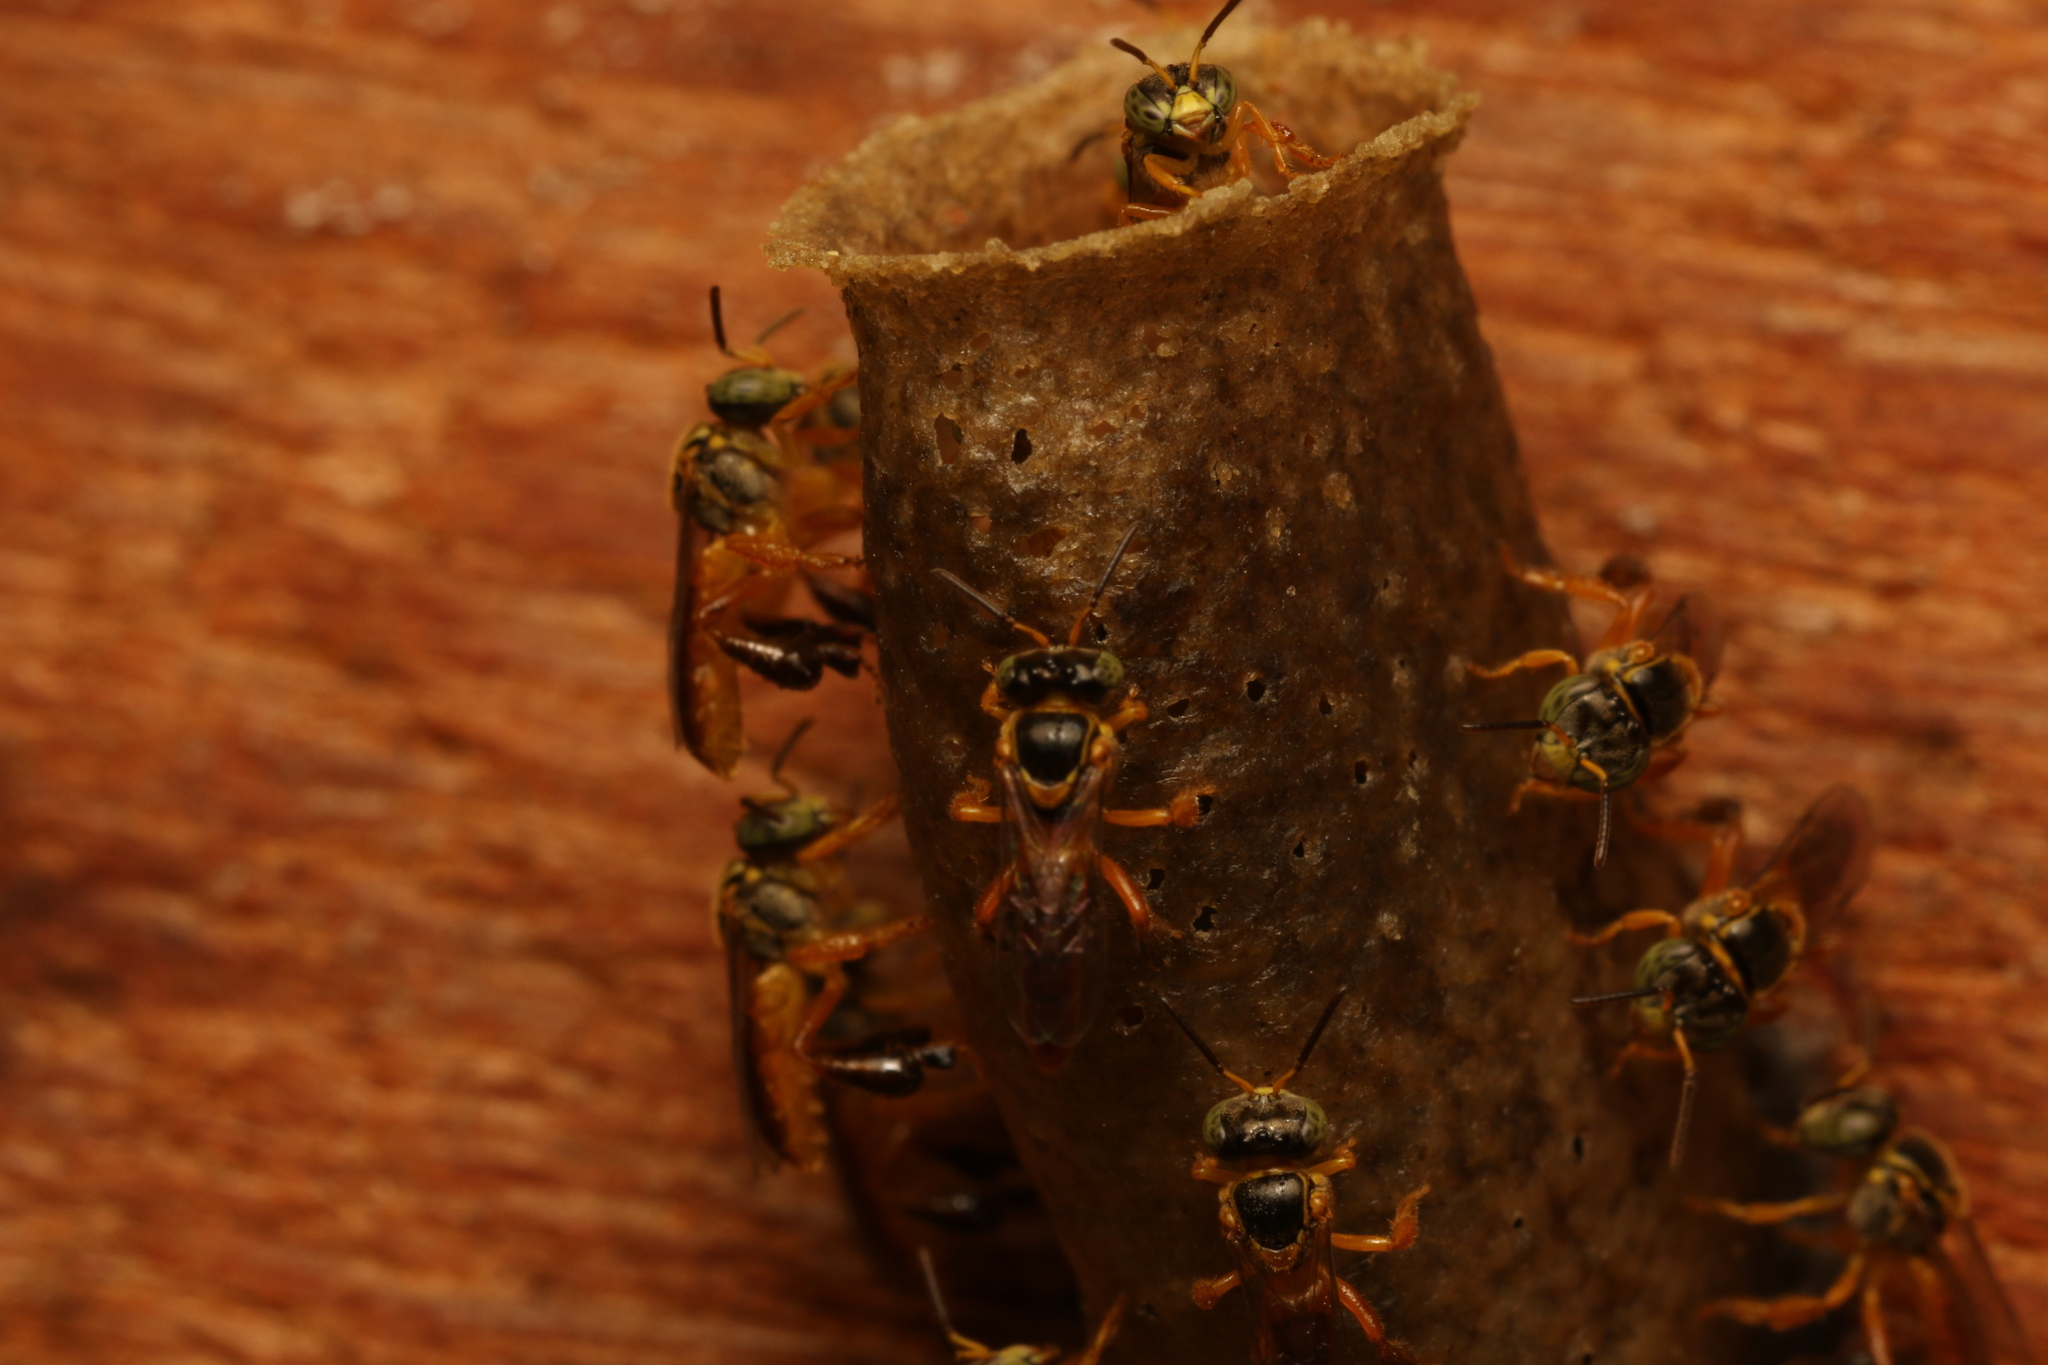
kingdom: Animalia
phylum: Arthropoda
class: Insecta
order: Hymenoptera
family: Apidae
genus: Tetragonisca
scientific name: Tetragonisca angustula
